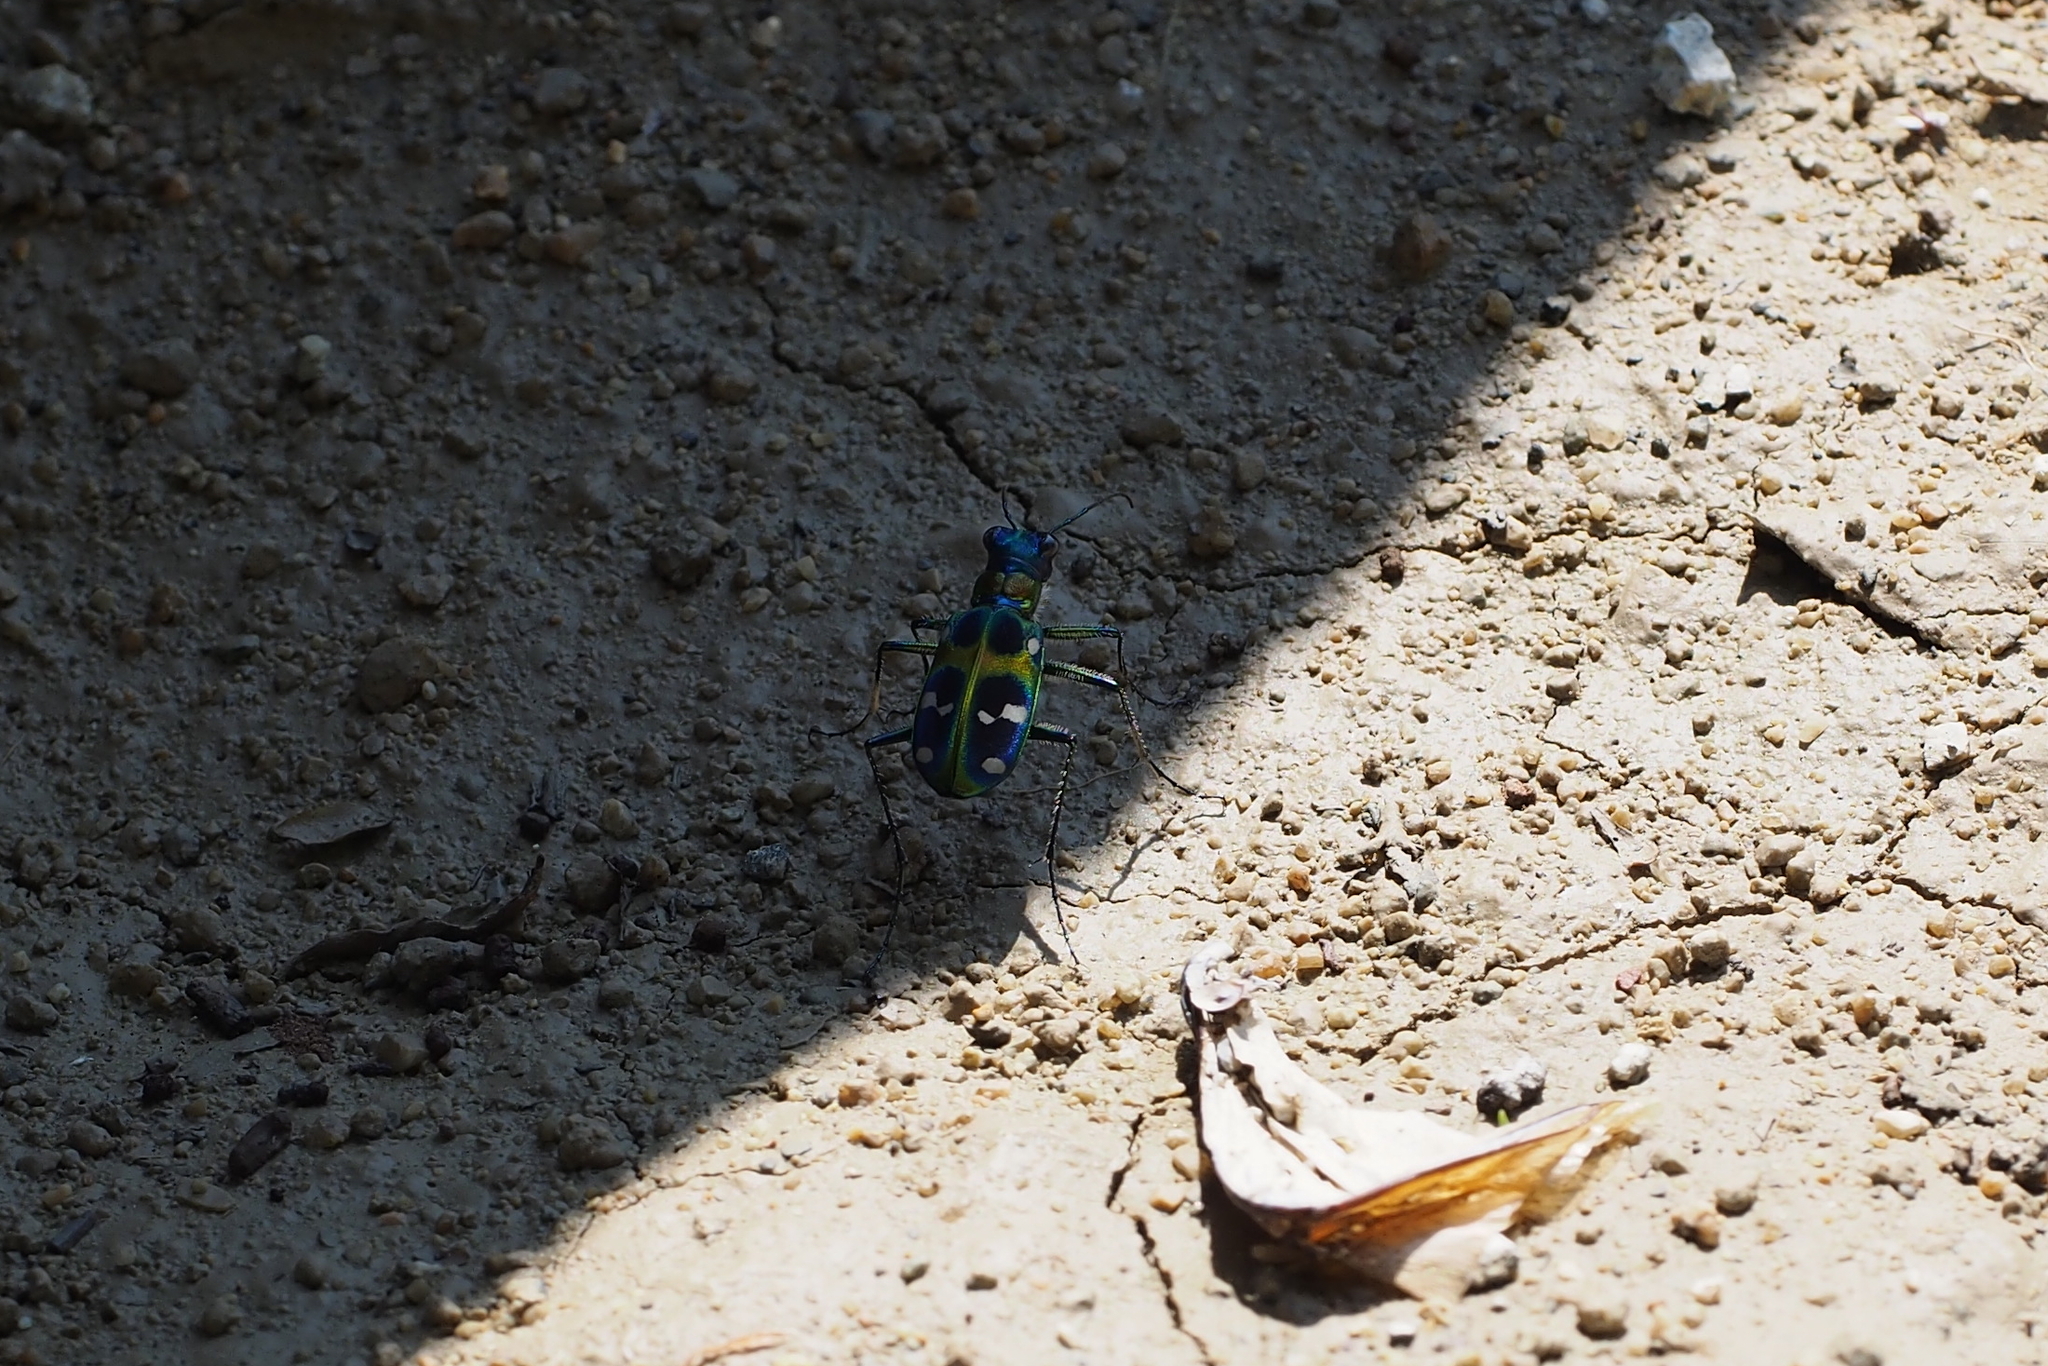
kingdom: Animalia
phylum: Arthropoda
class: Insecta
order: Coleoptera
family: Carabidae
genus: Cicindela
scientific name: Cicindela chinensis
